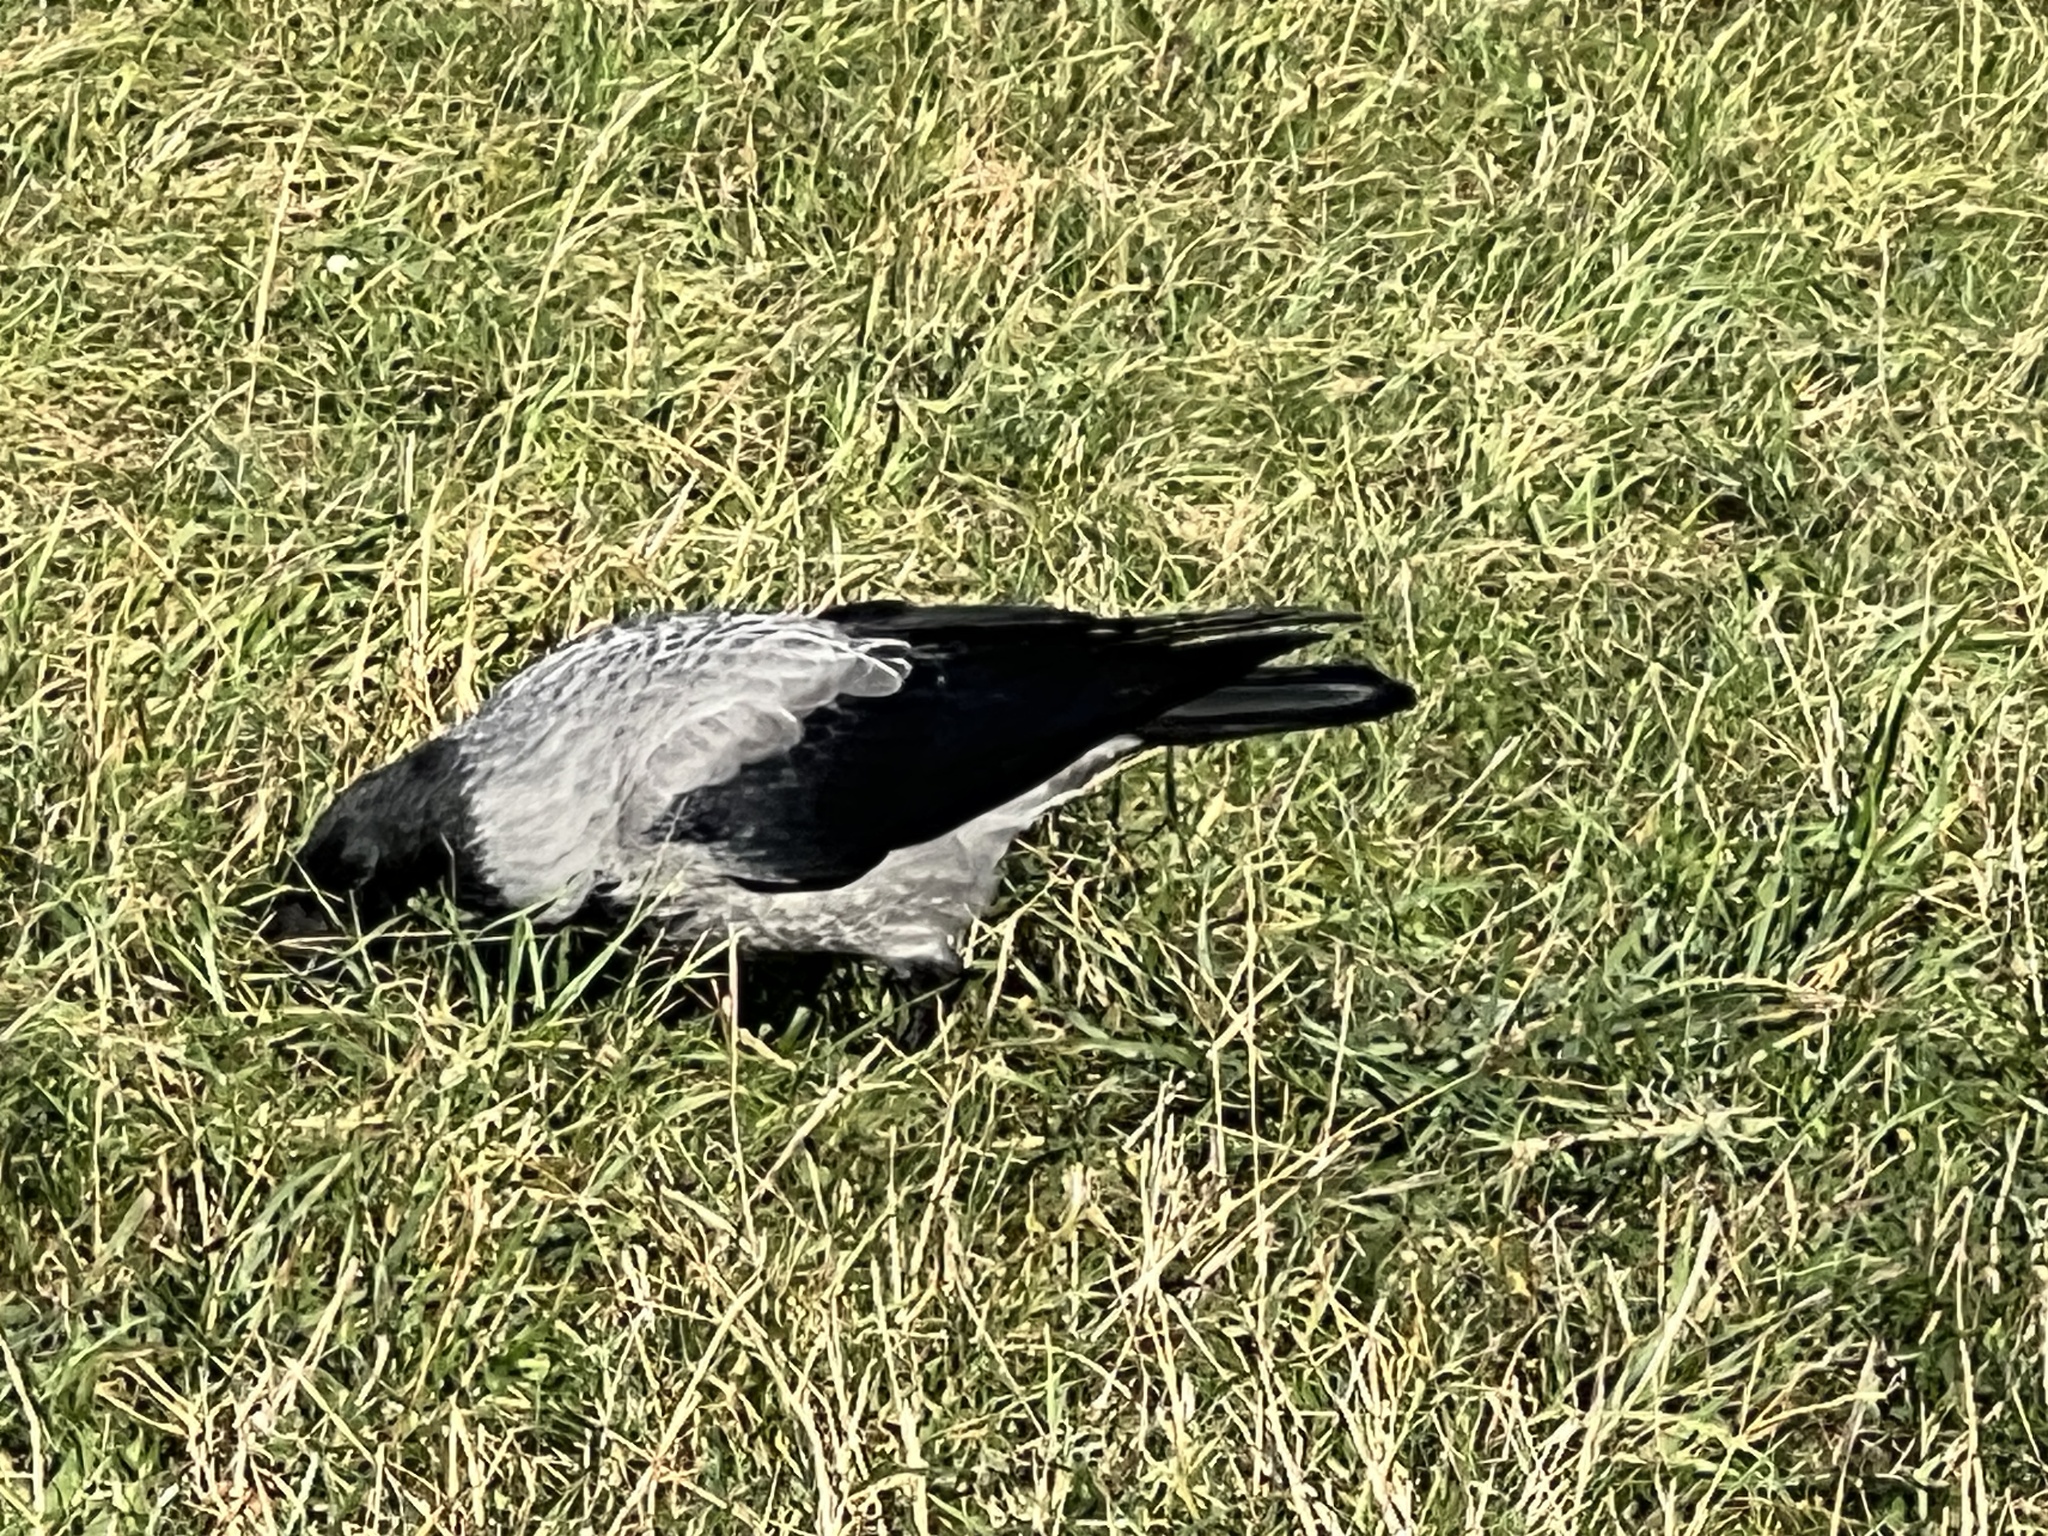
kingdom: Animalia
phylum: Chordata
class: Aves
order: Passeriformes
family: Corvidae
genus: Corvus
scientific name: Corvus cornix
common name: Hooded crow
